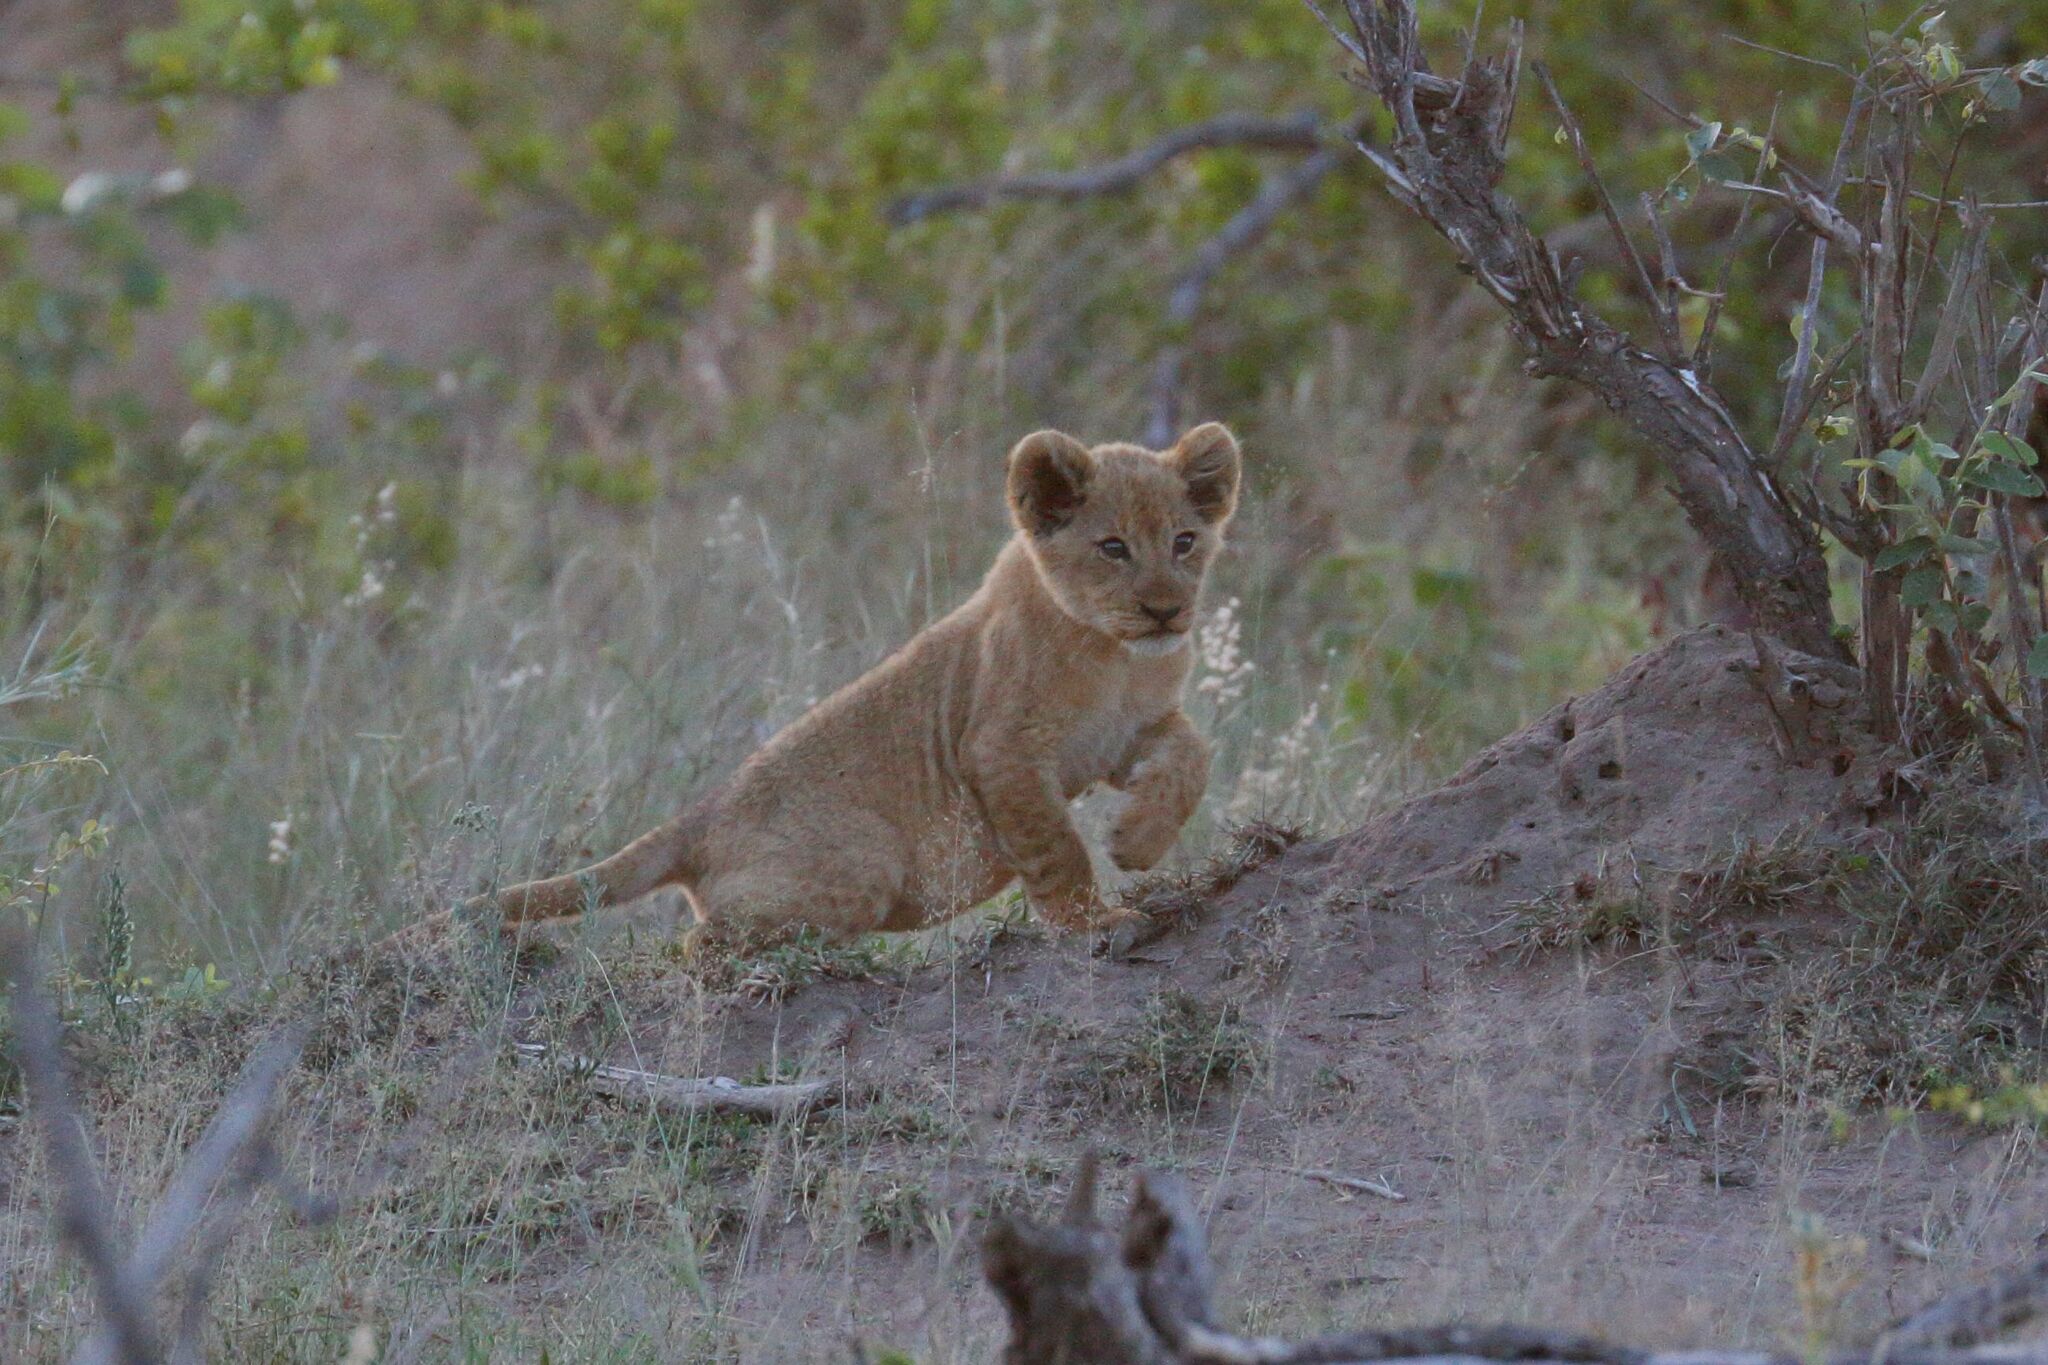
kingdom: Animalia
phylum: Chordata
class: Mammalia
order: Carnivora
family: Felidae
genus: Panthera
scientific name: Panthera leo
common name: Lion
